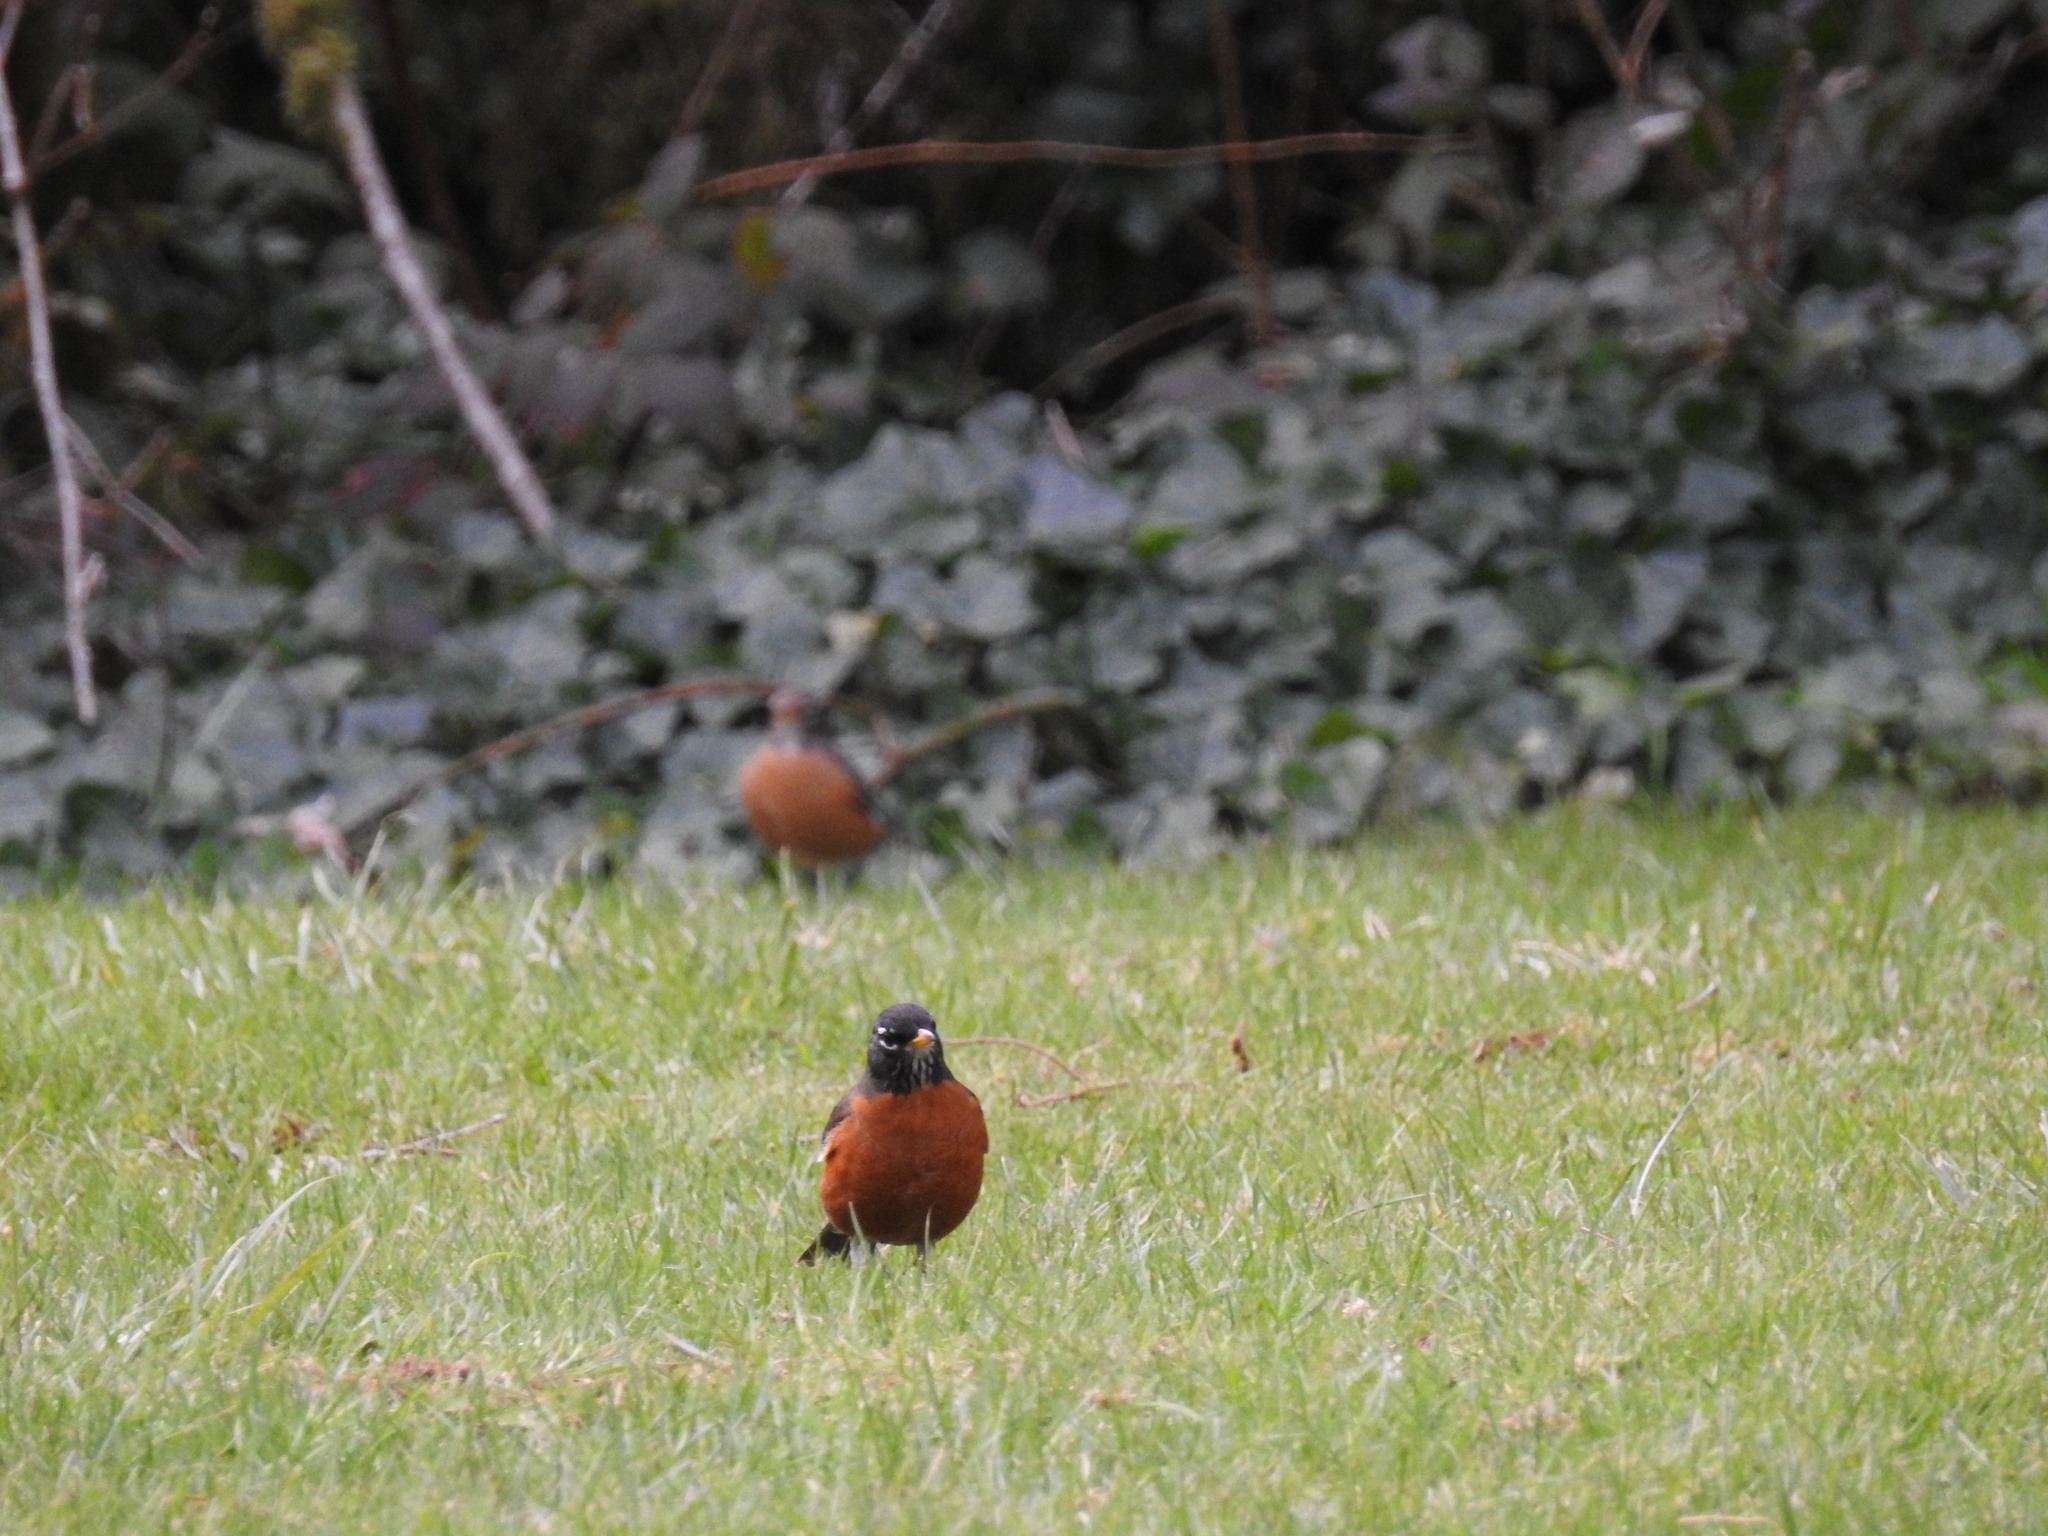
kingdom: Animalia
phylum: Chordata
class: Aves
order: Passeriformes
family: Turdidae
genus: Turdus
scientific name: Turdus migratorius
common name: American robin
